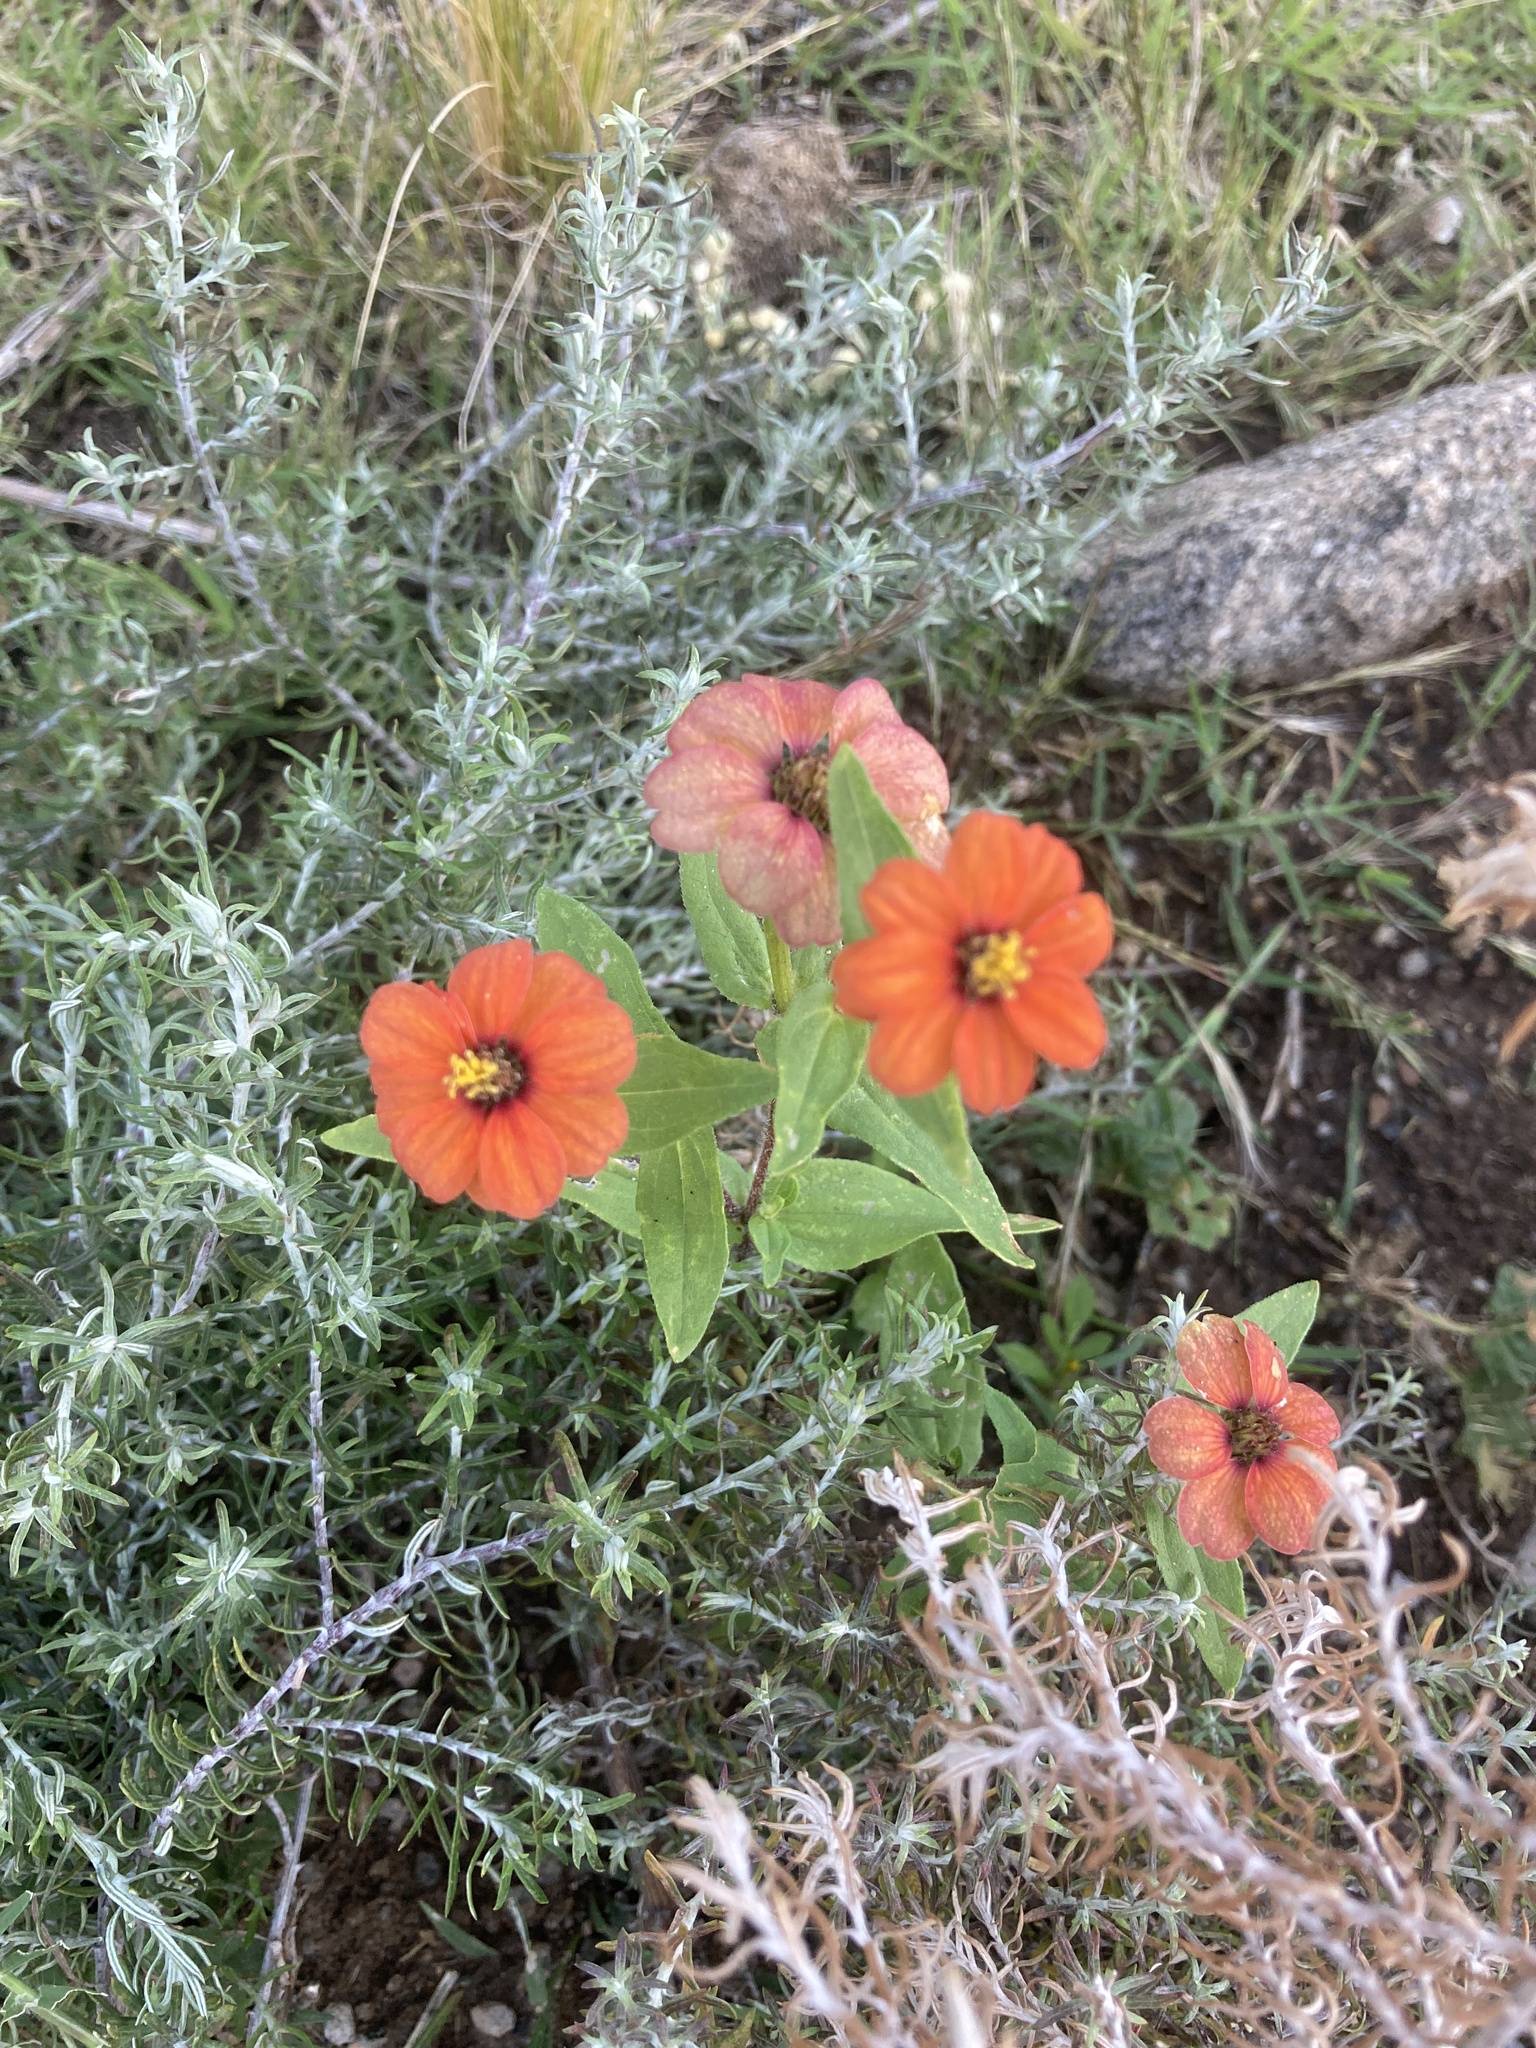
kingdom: Plantae
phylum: Tracheophyta
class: Magnoliopsida
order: Asterales
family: Asteraceae
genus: Zinnia
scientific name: Zinnia peruviana
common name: Peruvian zinnia
